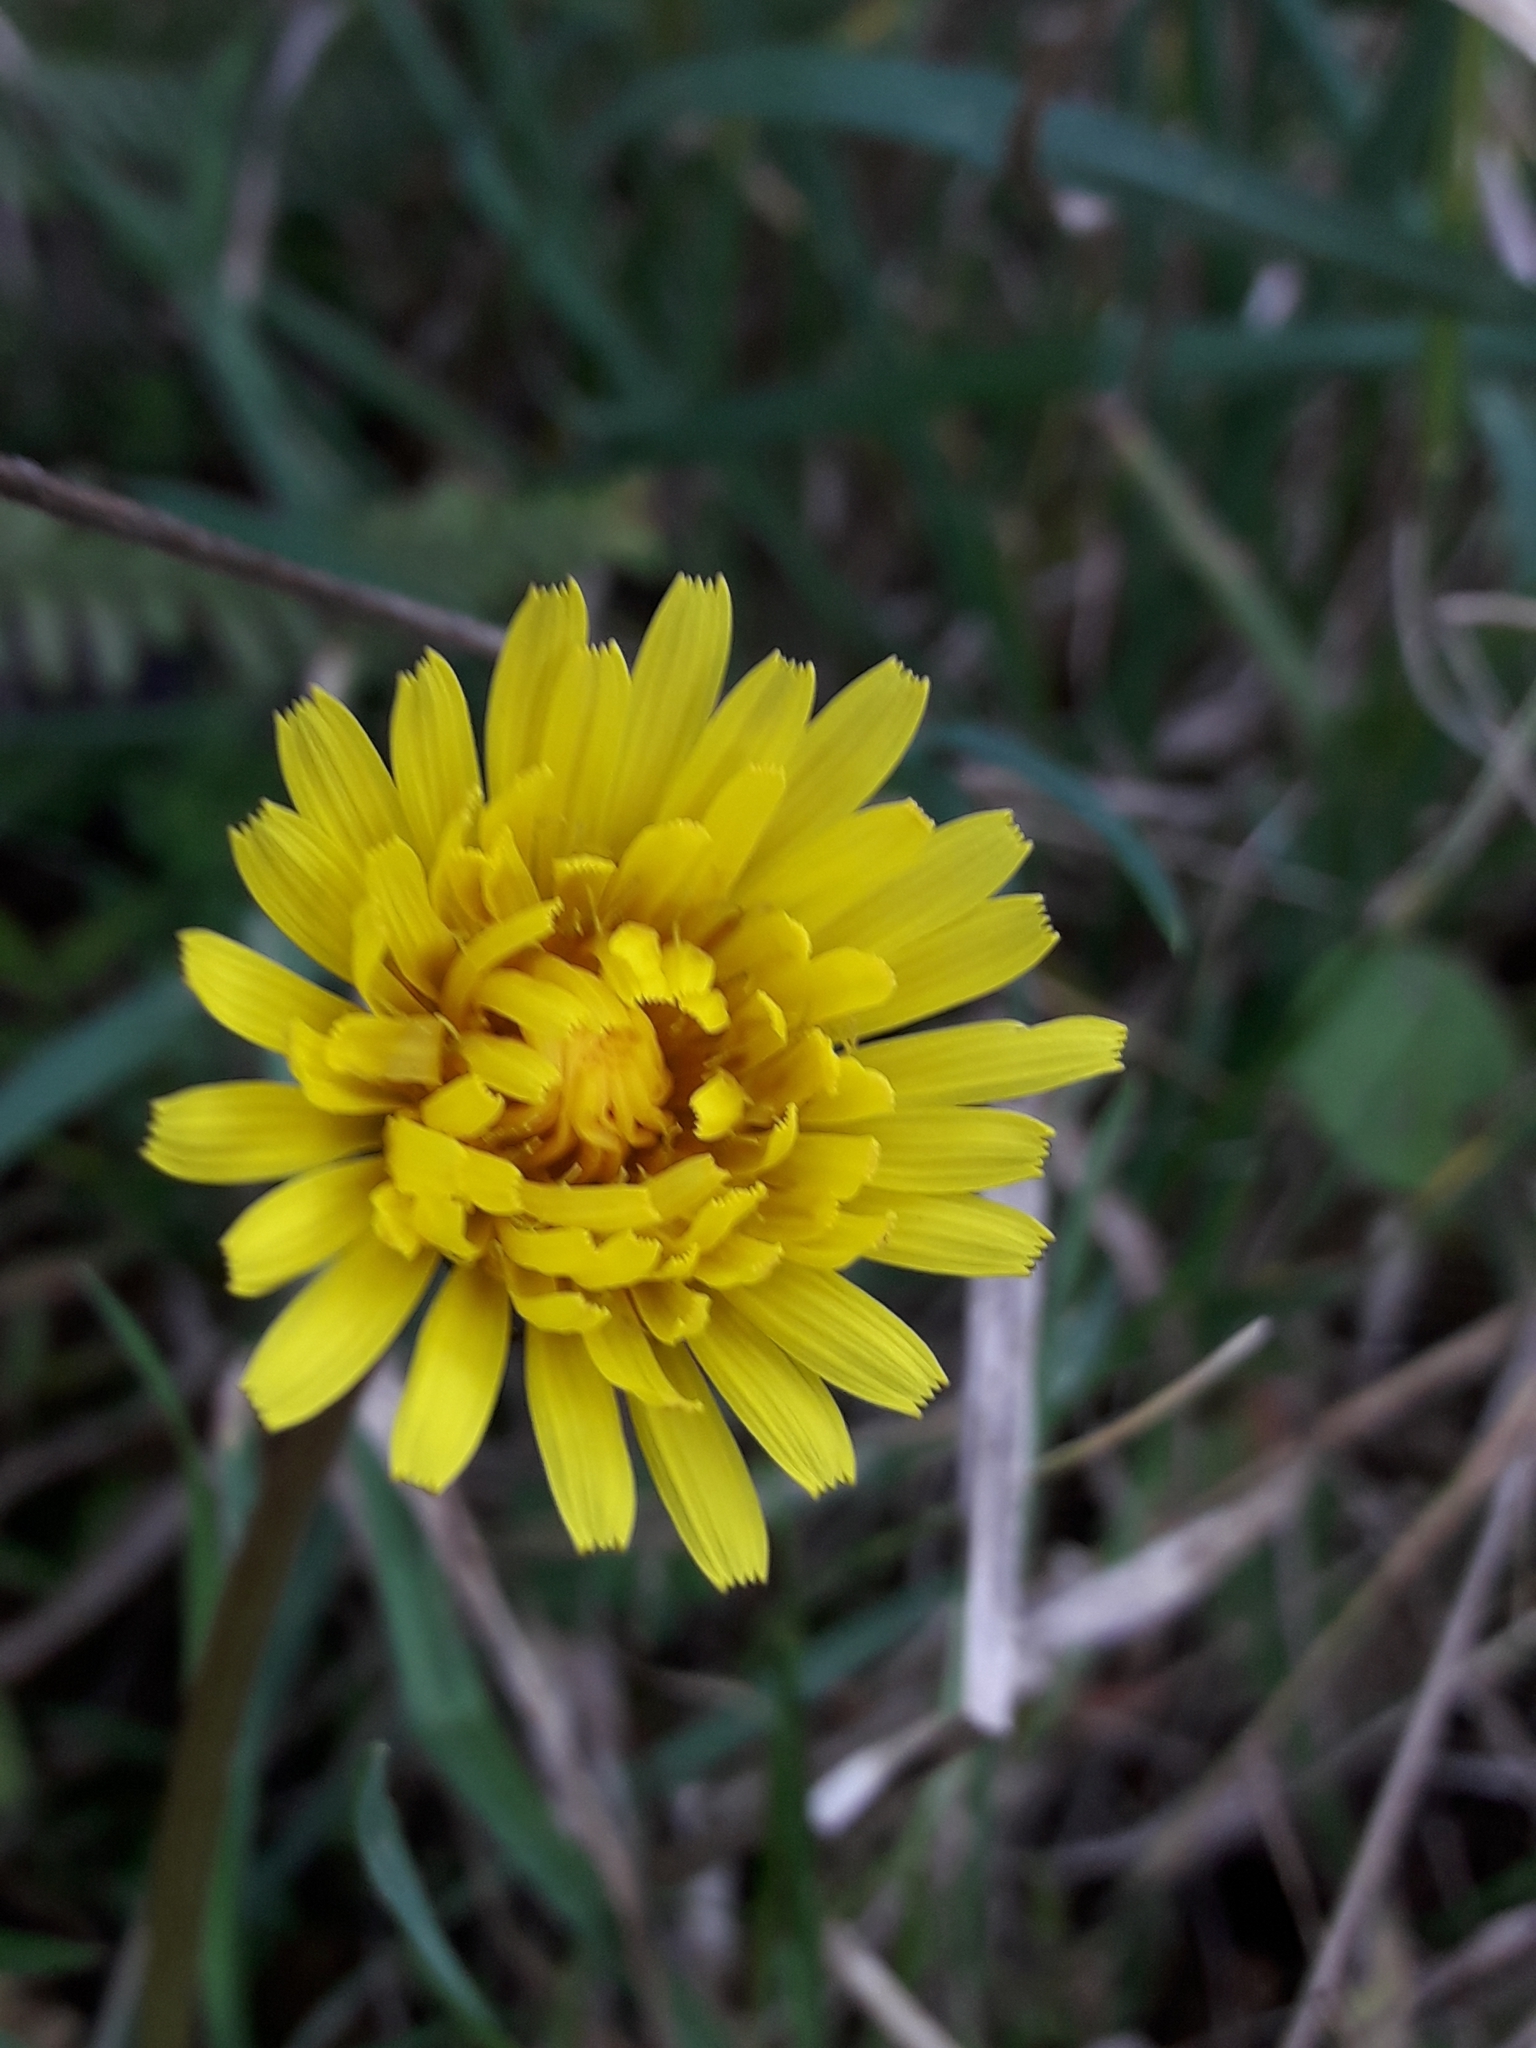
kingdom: Plantae
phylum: Tracheophyta
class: Magnoliopsida
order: Asterales
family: Asteraceae
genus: Taraxacum
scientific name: Taraxacum officinale
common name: Common dandelion
